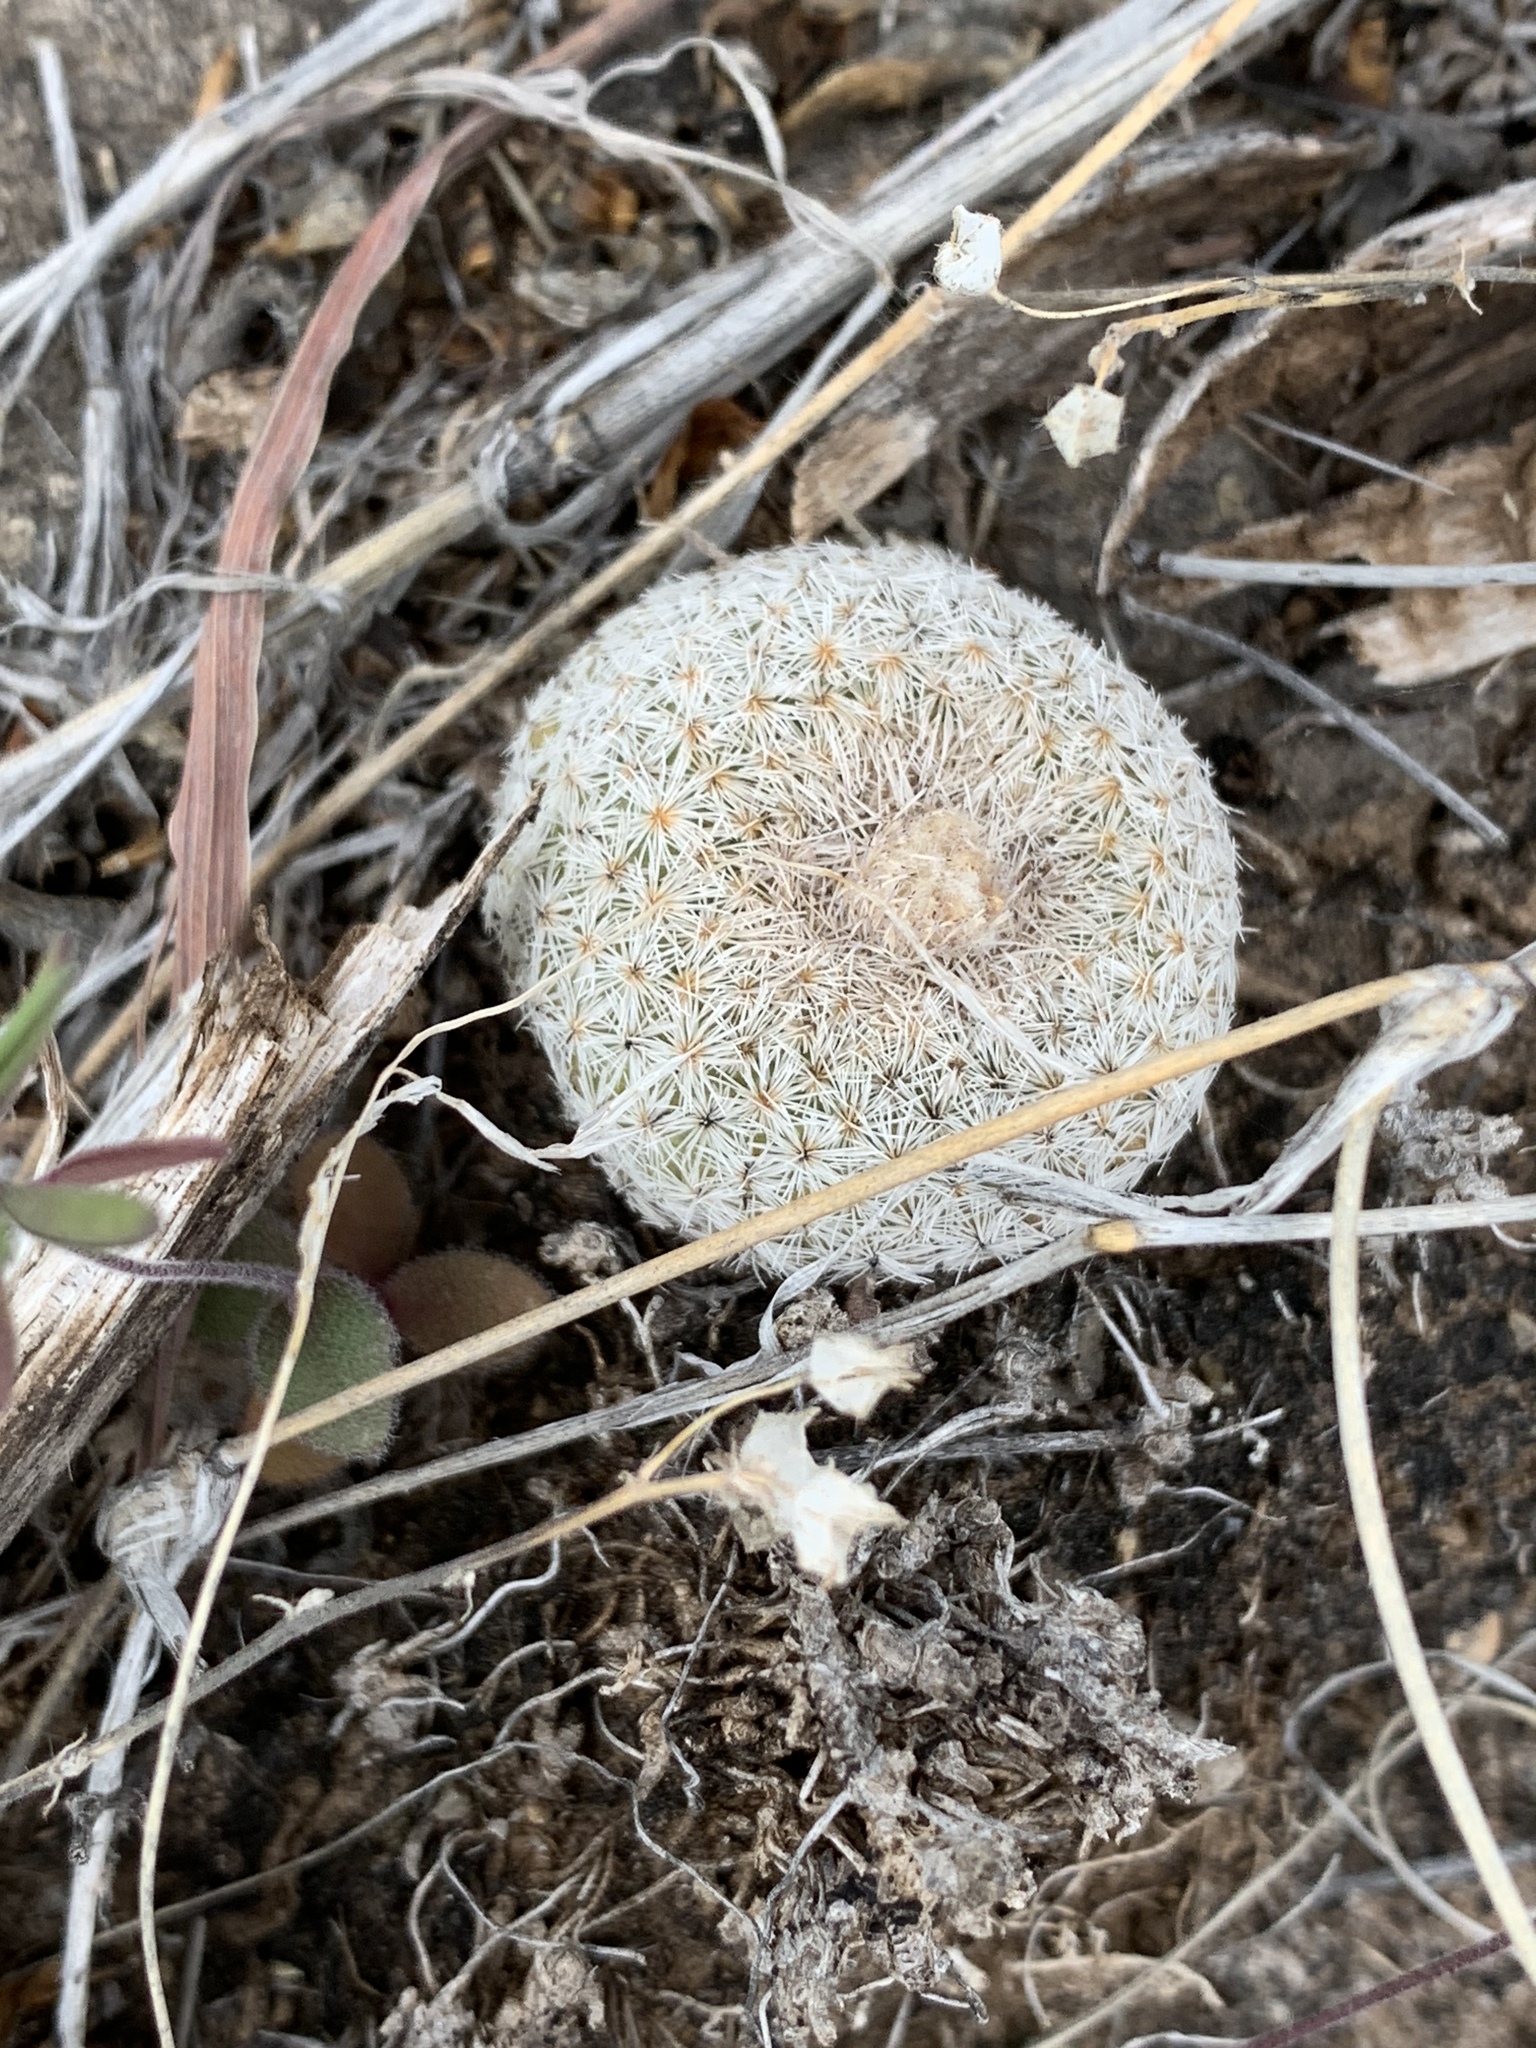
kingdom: Plantae
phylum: Tracheophyta
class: Magnoliopsida
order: Caryophyllales
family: Cactaceae
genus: Epithelantha
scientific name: Epithelantha micromeris
